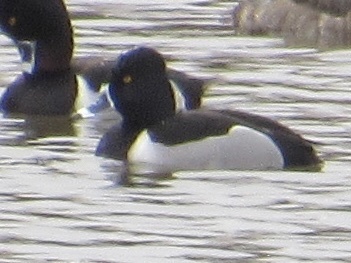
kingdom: Animalia
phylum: Chordata
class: Aves
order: Anseriformes
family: Anatidae
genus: Aythya
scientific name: Aythya collaris
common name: Ring-necked duck
